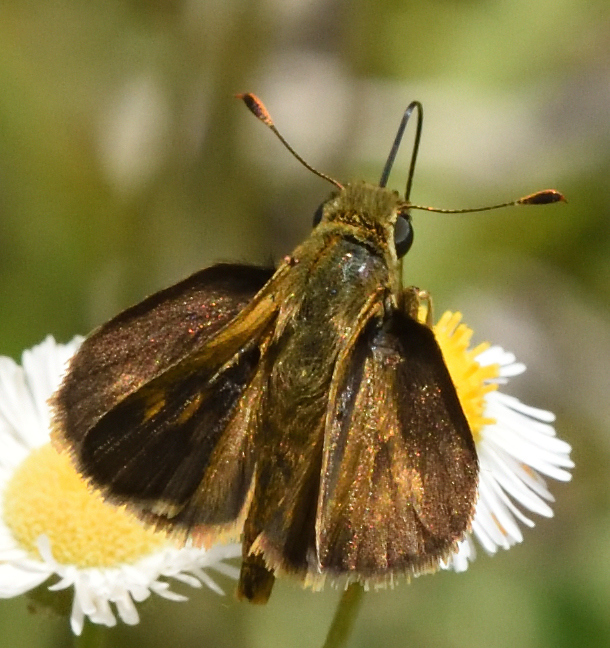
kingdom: Animalia
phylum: Arthropoda
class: Insecta
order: Lepidoptera
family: Hesperiidae
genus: Polites
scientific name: Polites otho
